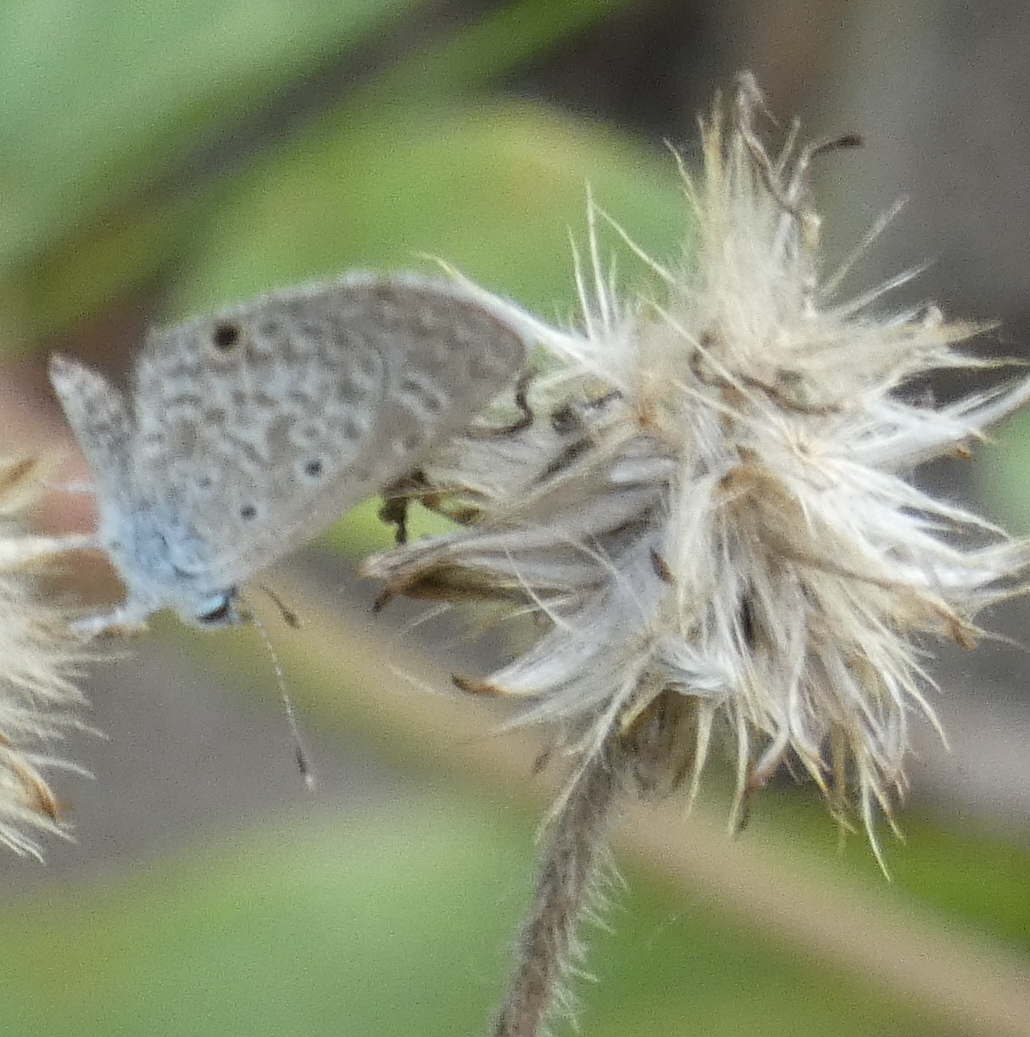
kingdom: Animalia
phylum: Arthropoda
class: Insecta
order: Lepidoptera
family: Lycaenidae
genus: Hemiargus
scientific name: Hemiargus hanno
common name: Common blue
